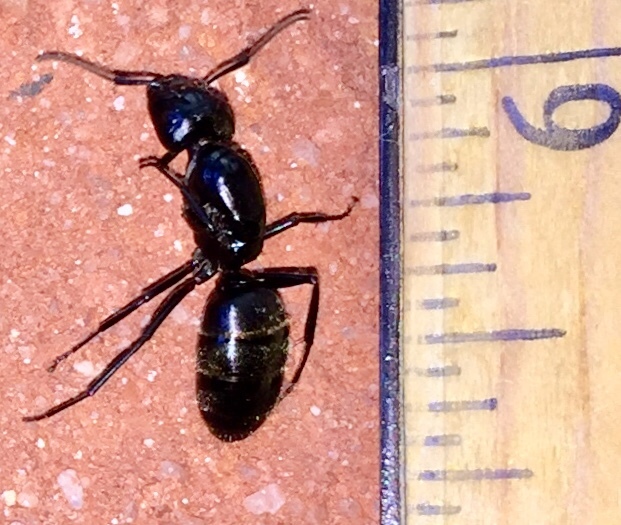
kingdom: Animalia
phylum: Arthropoda
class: Insecta
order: Hymenoptera
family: Formicidae
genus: Camponotus
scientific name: Camponotus pennsylvanicus
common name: Black carpenter ant
